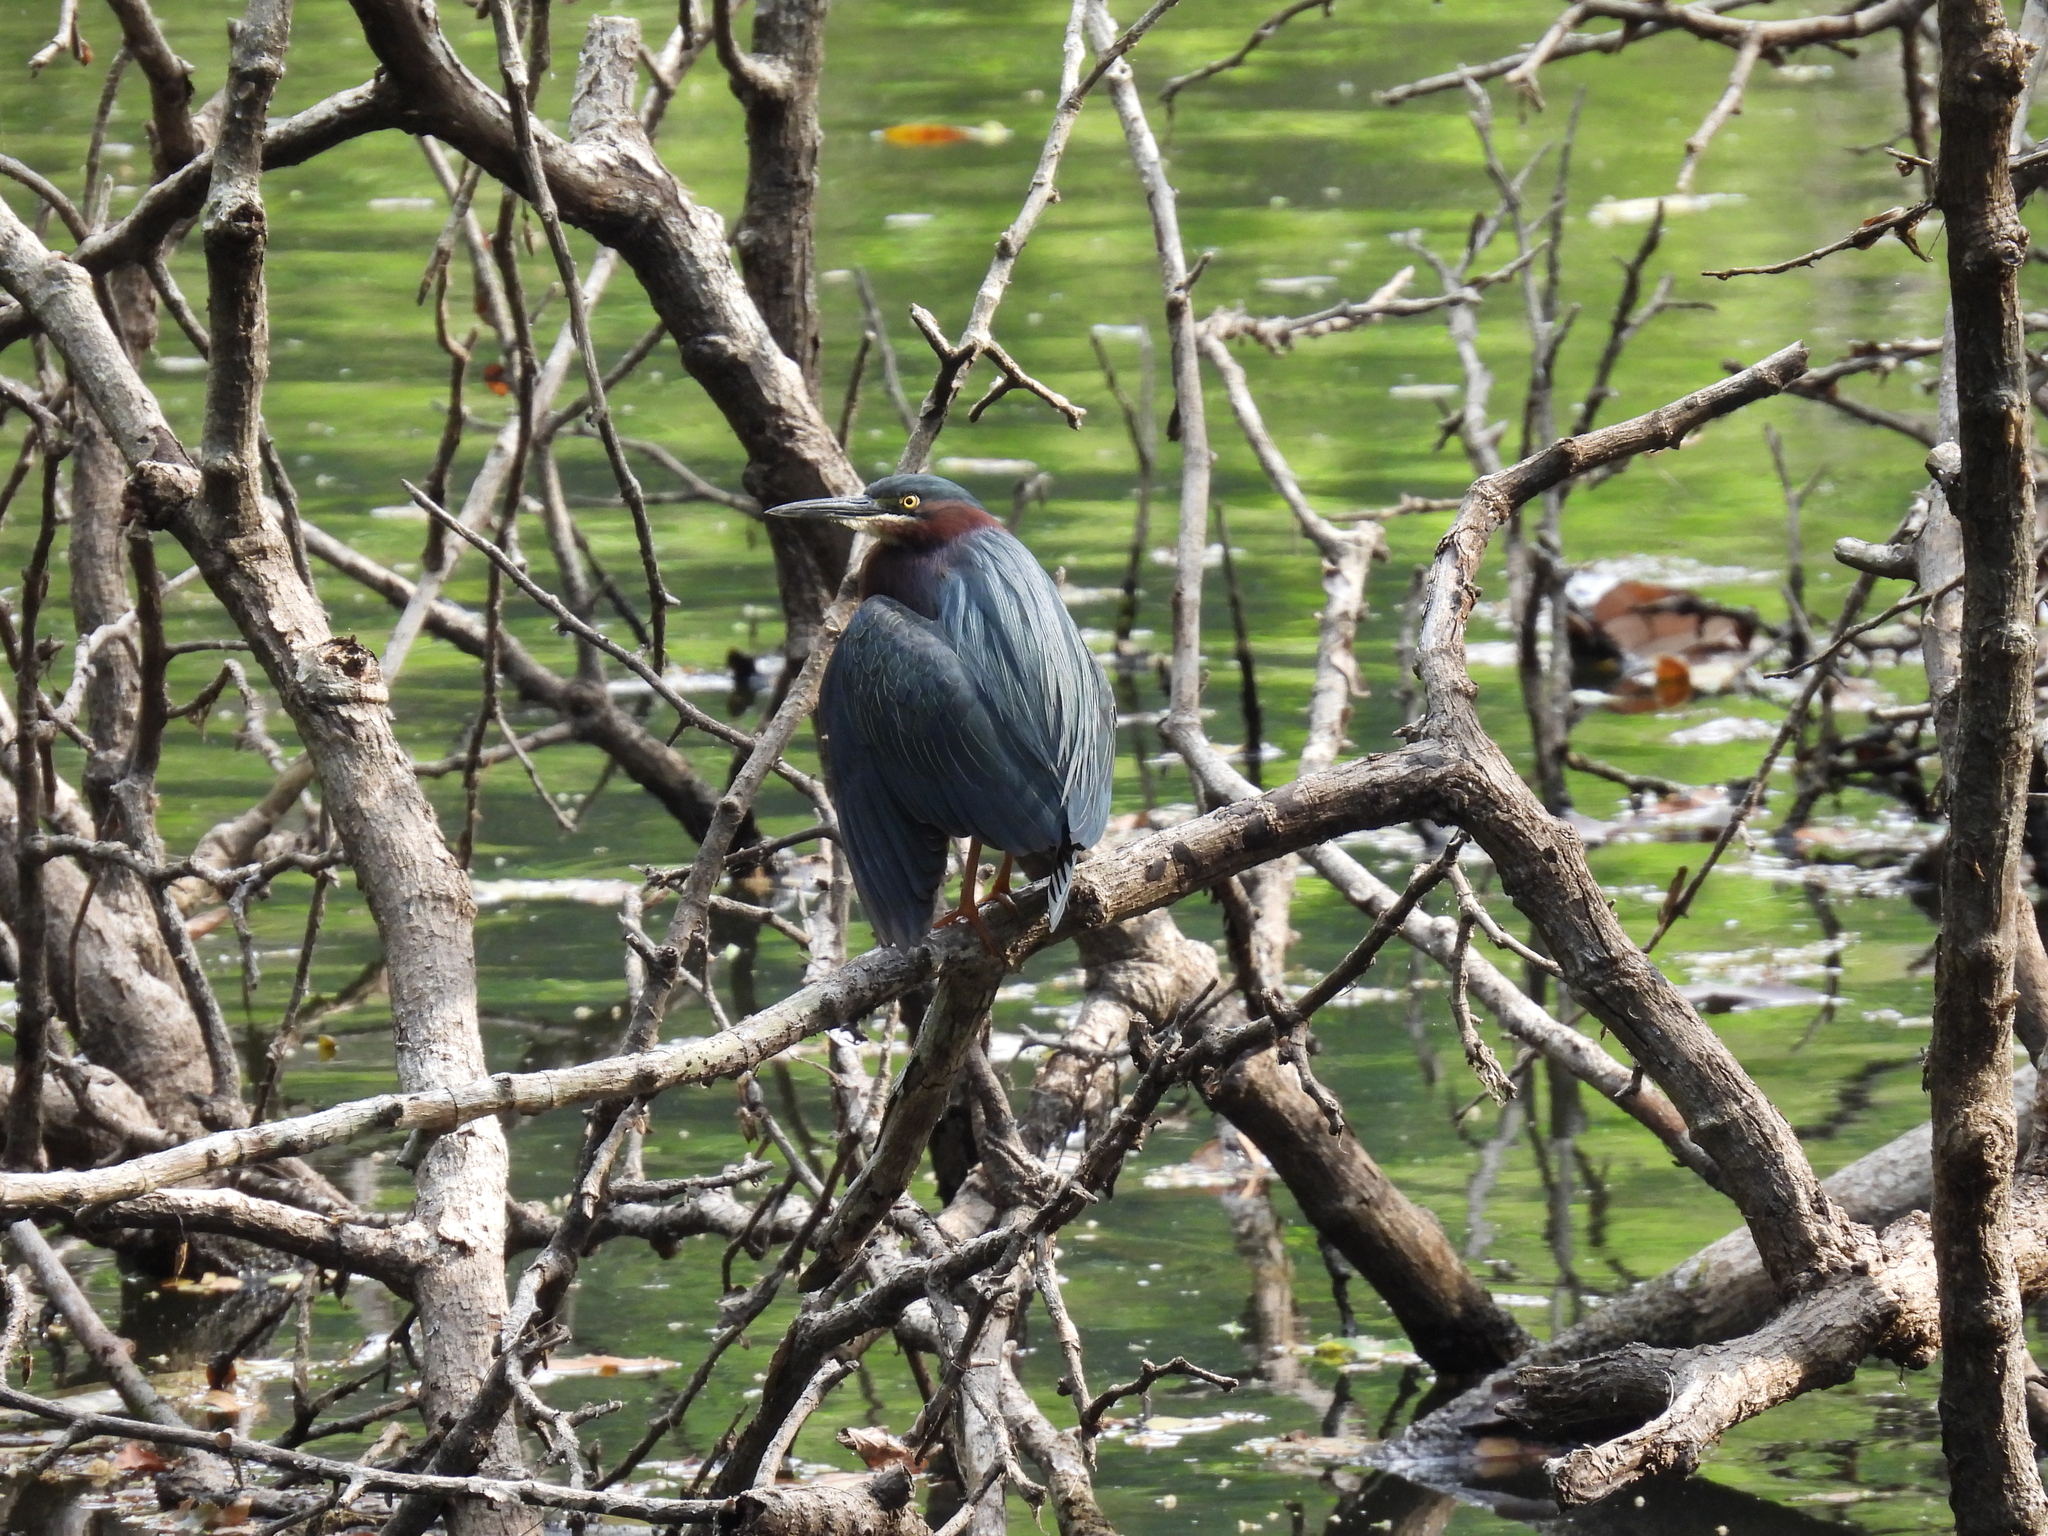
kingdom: Animalia
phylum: Chordata
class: Aves
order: Pelecaniformes
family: Ardeidae
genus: Butorides
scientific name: Butorides virescens
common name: Green heron
